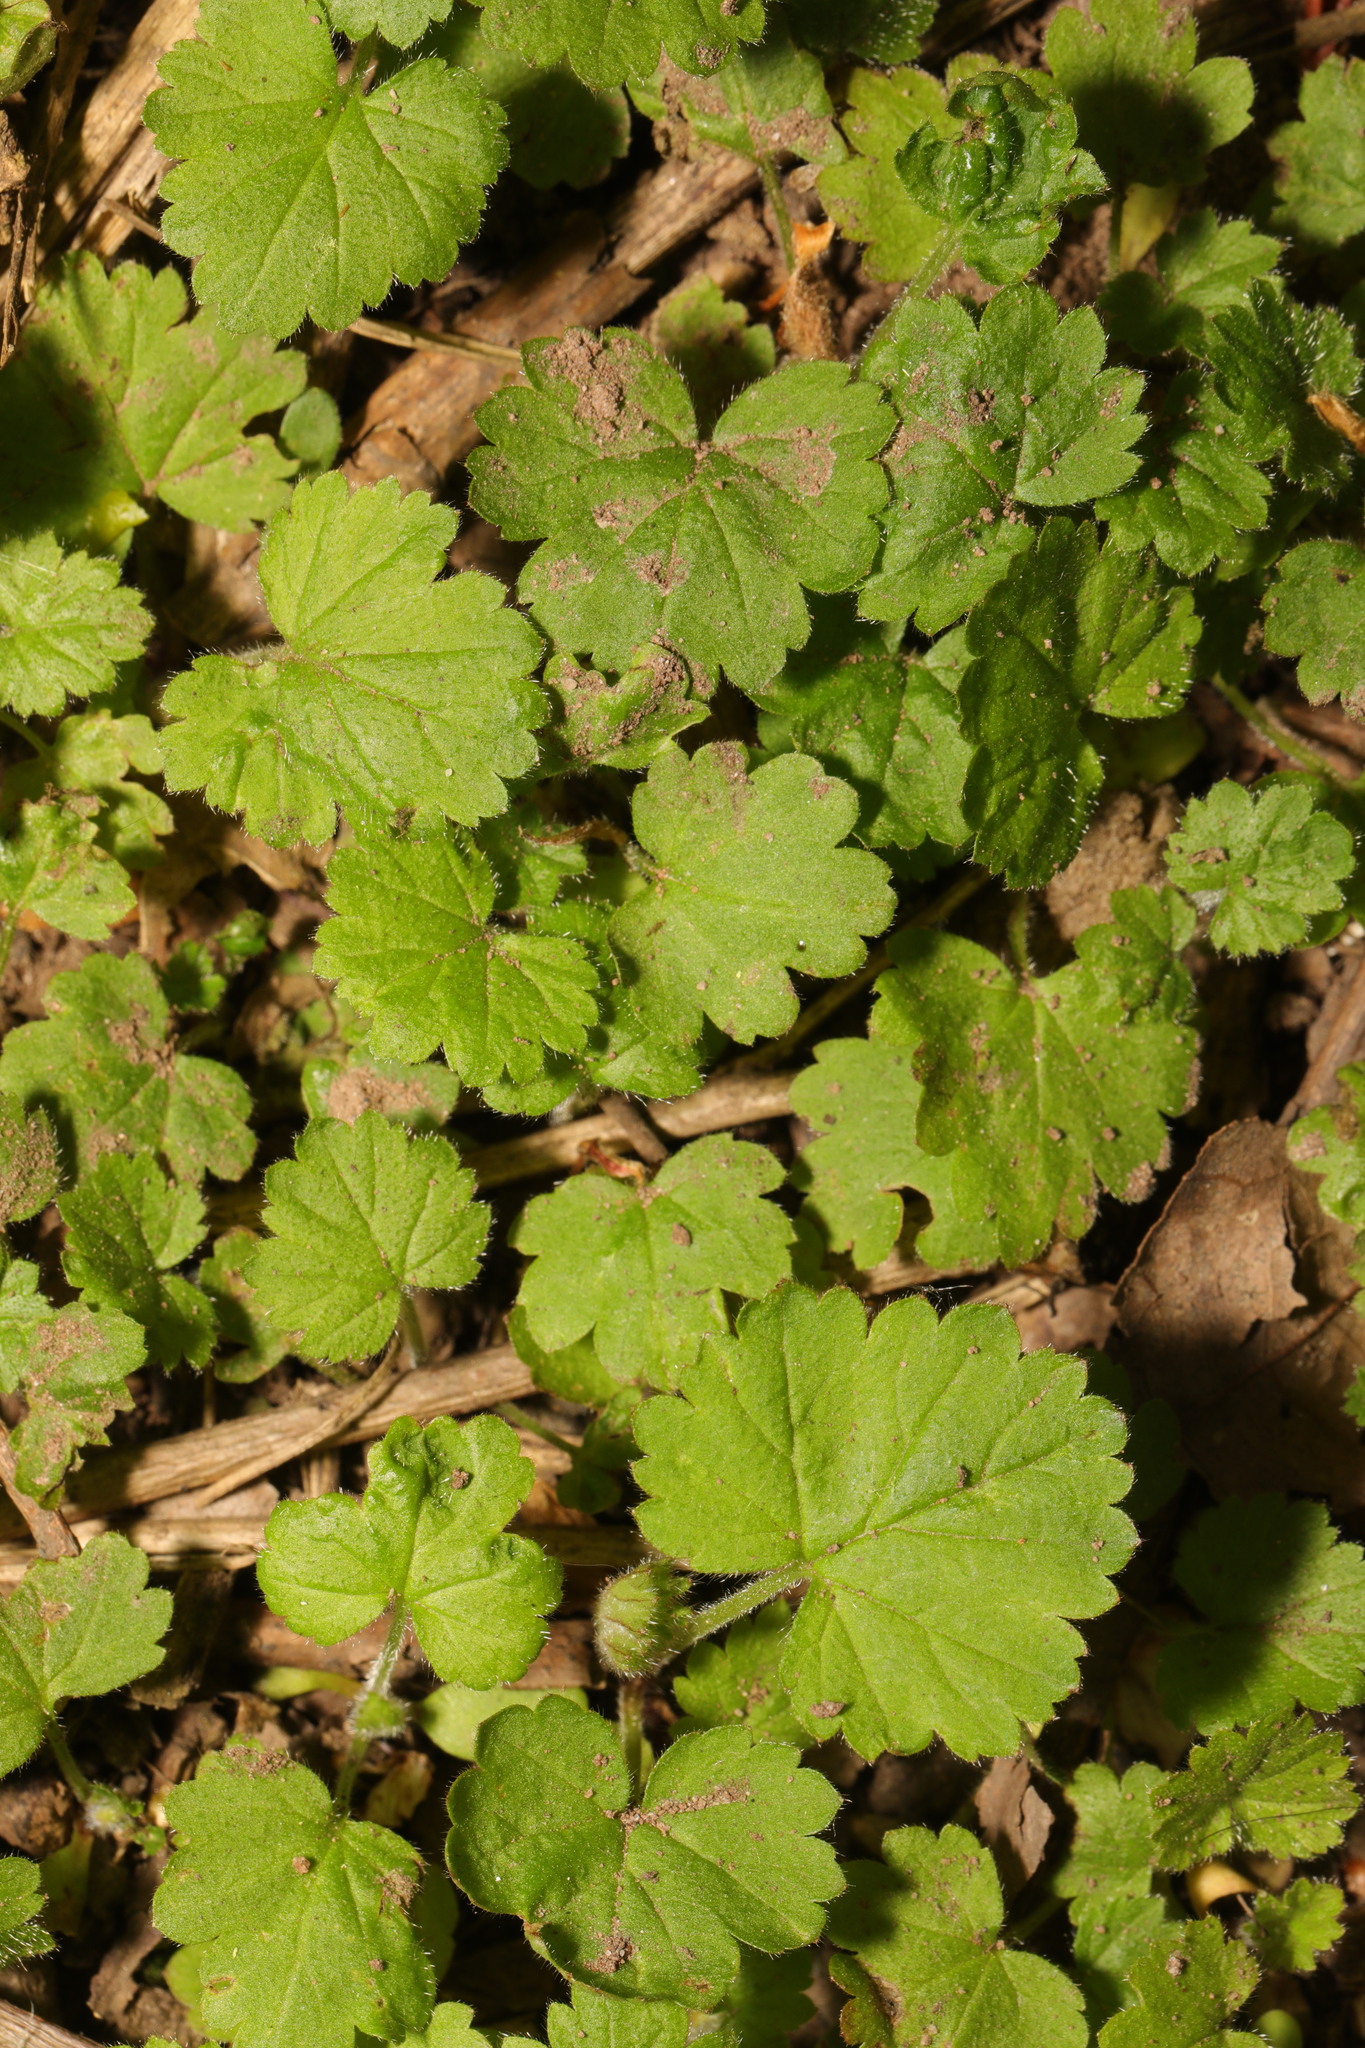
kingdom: Plantae
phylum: Tracheophyta
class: Magnoliopsida
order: Lamiales
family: Lamiaceae
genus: Glechoma
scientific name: Glechoma hederacea
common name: Ground ivy
